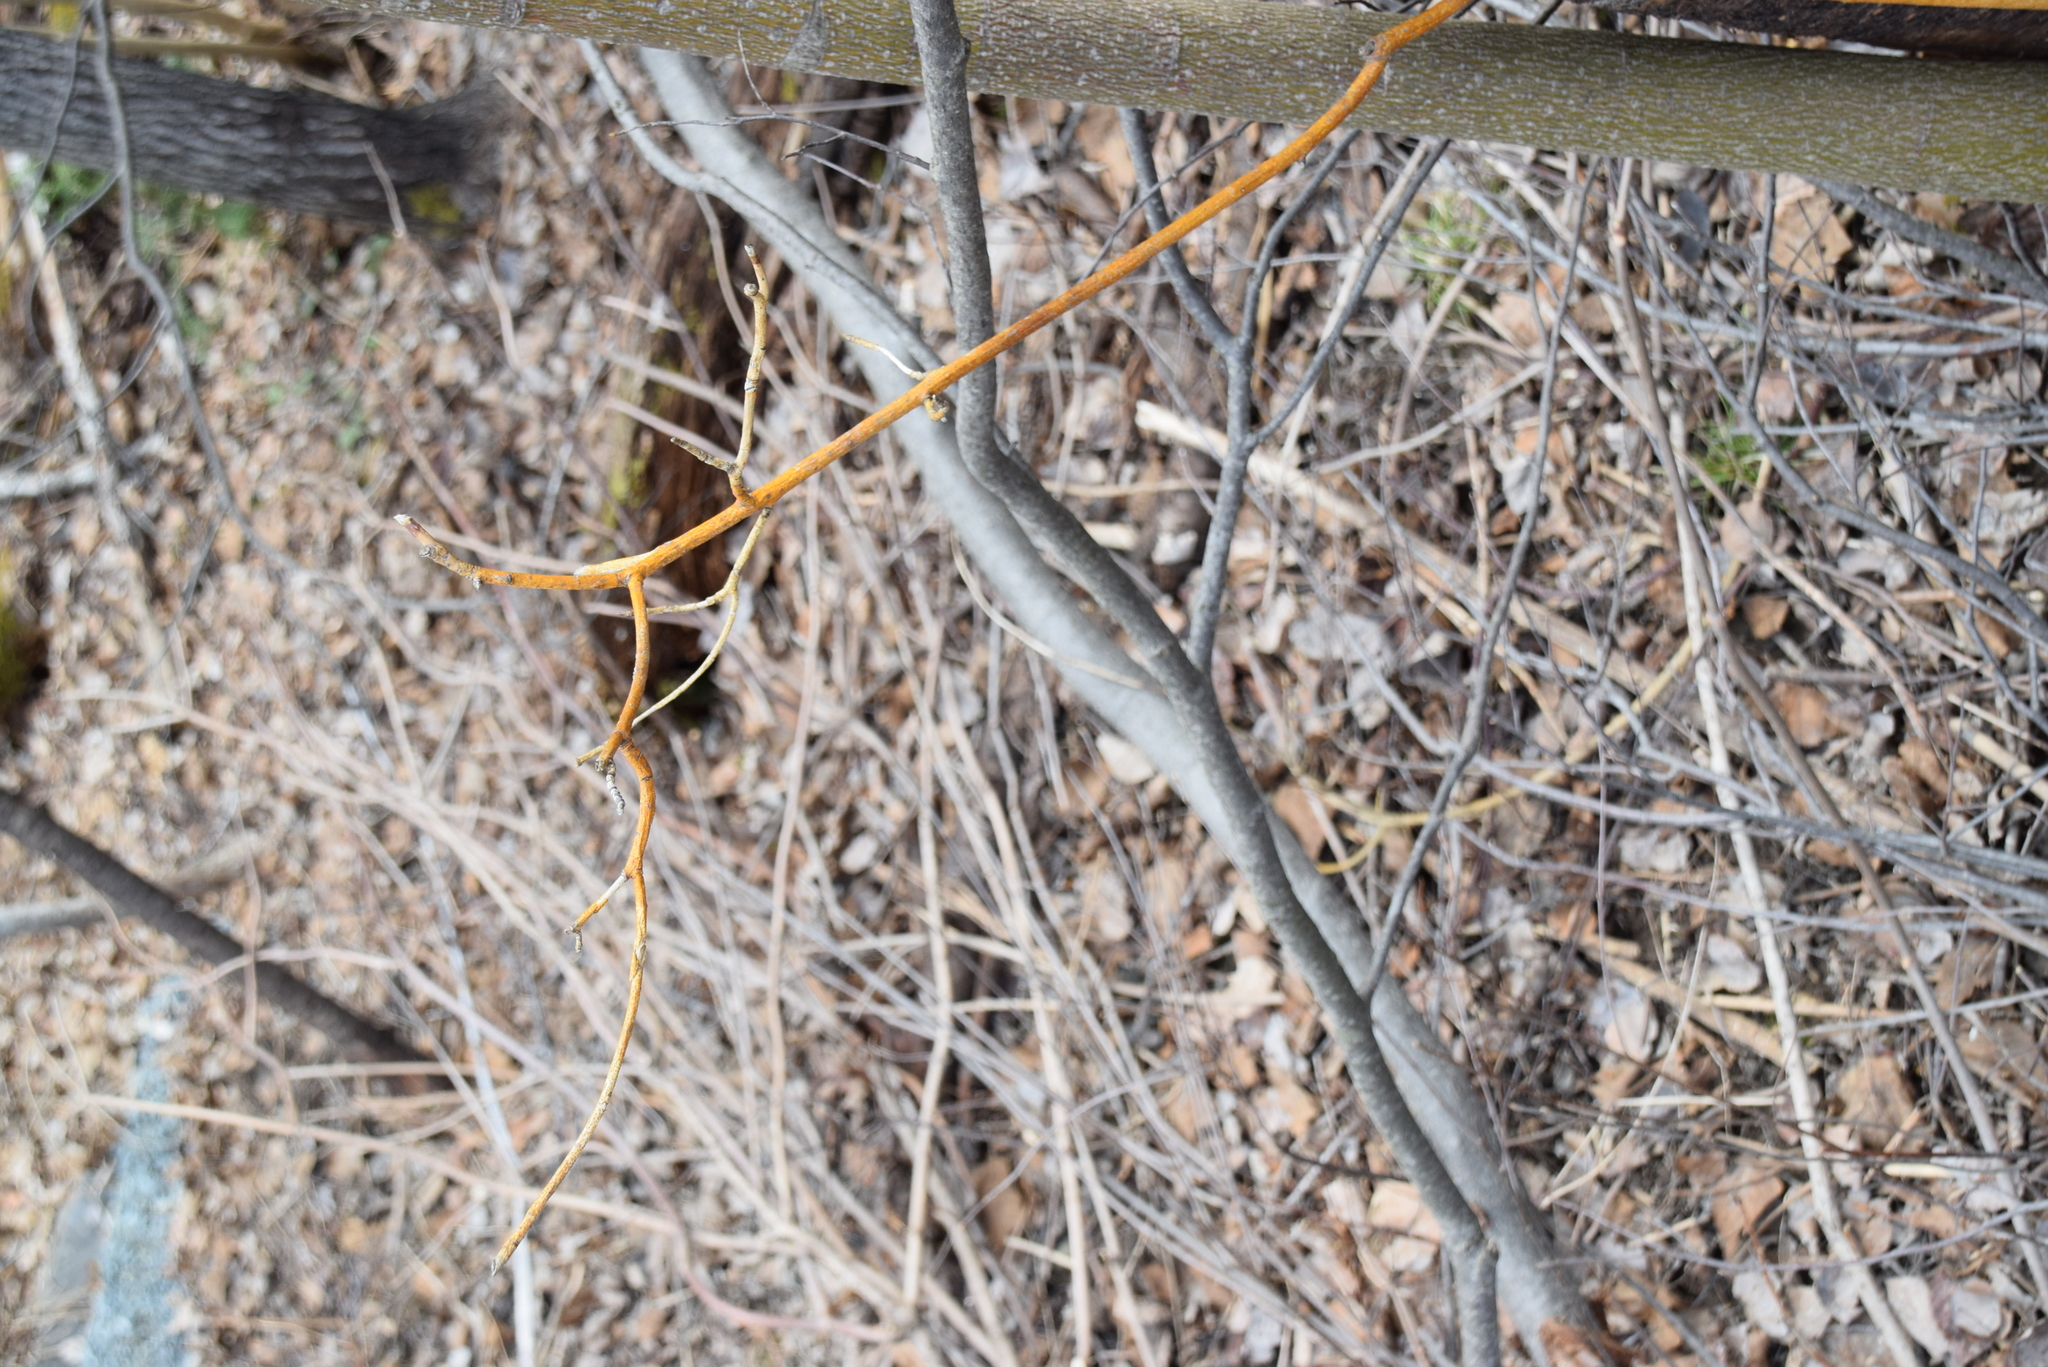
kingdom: Plantae
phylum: Tracheophyta
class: Magnoliopsida
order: Cornales
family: Cornaceae
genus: Cornus
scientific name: Cornus alternifolia
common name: Pagoda dogwood
